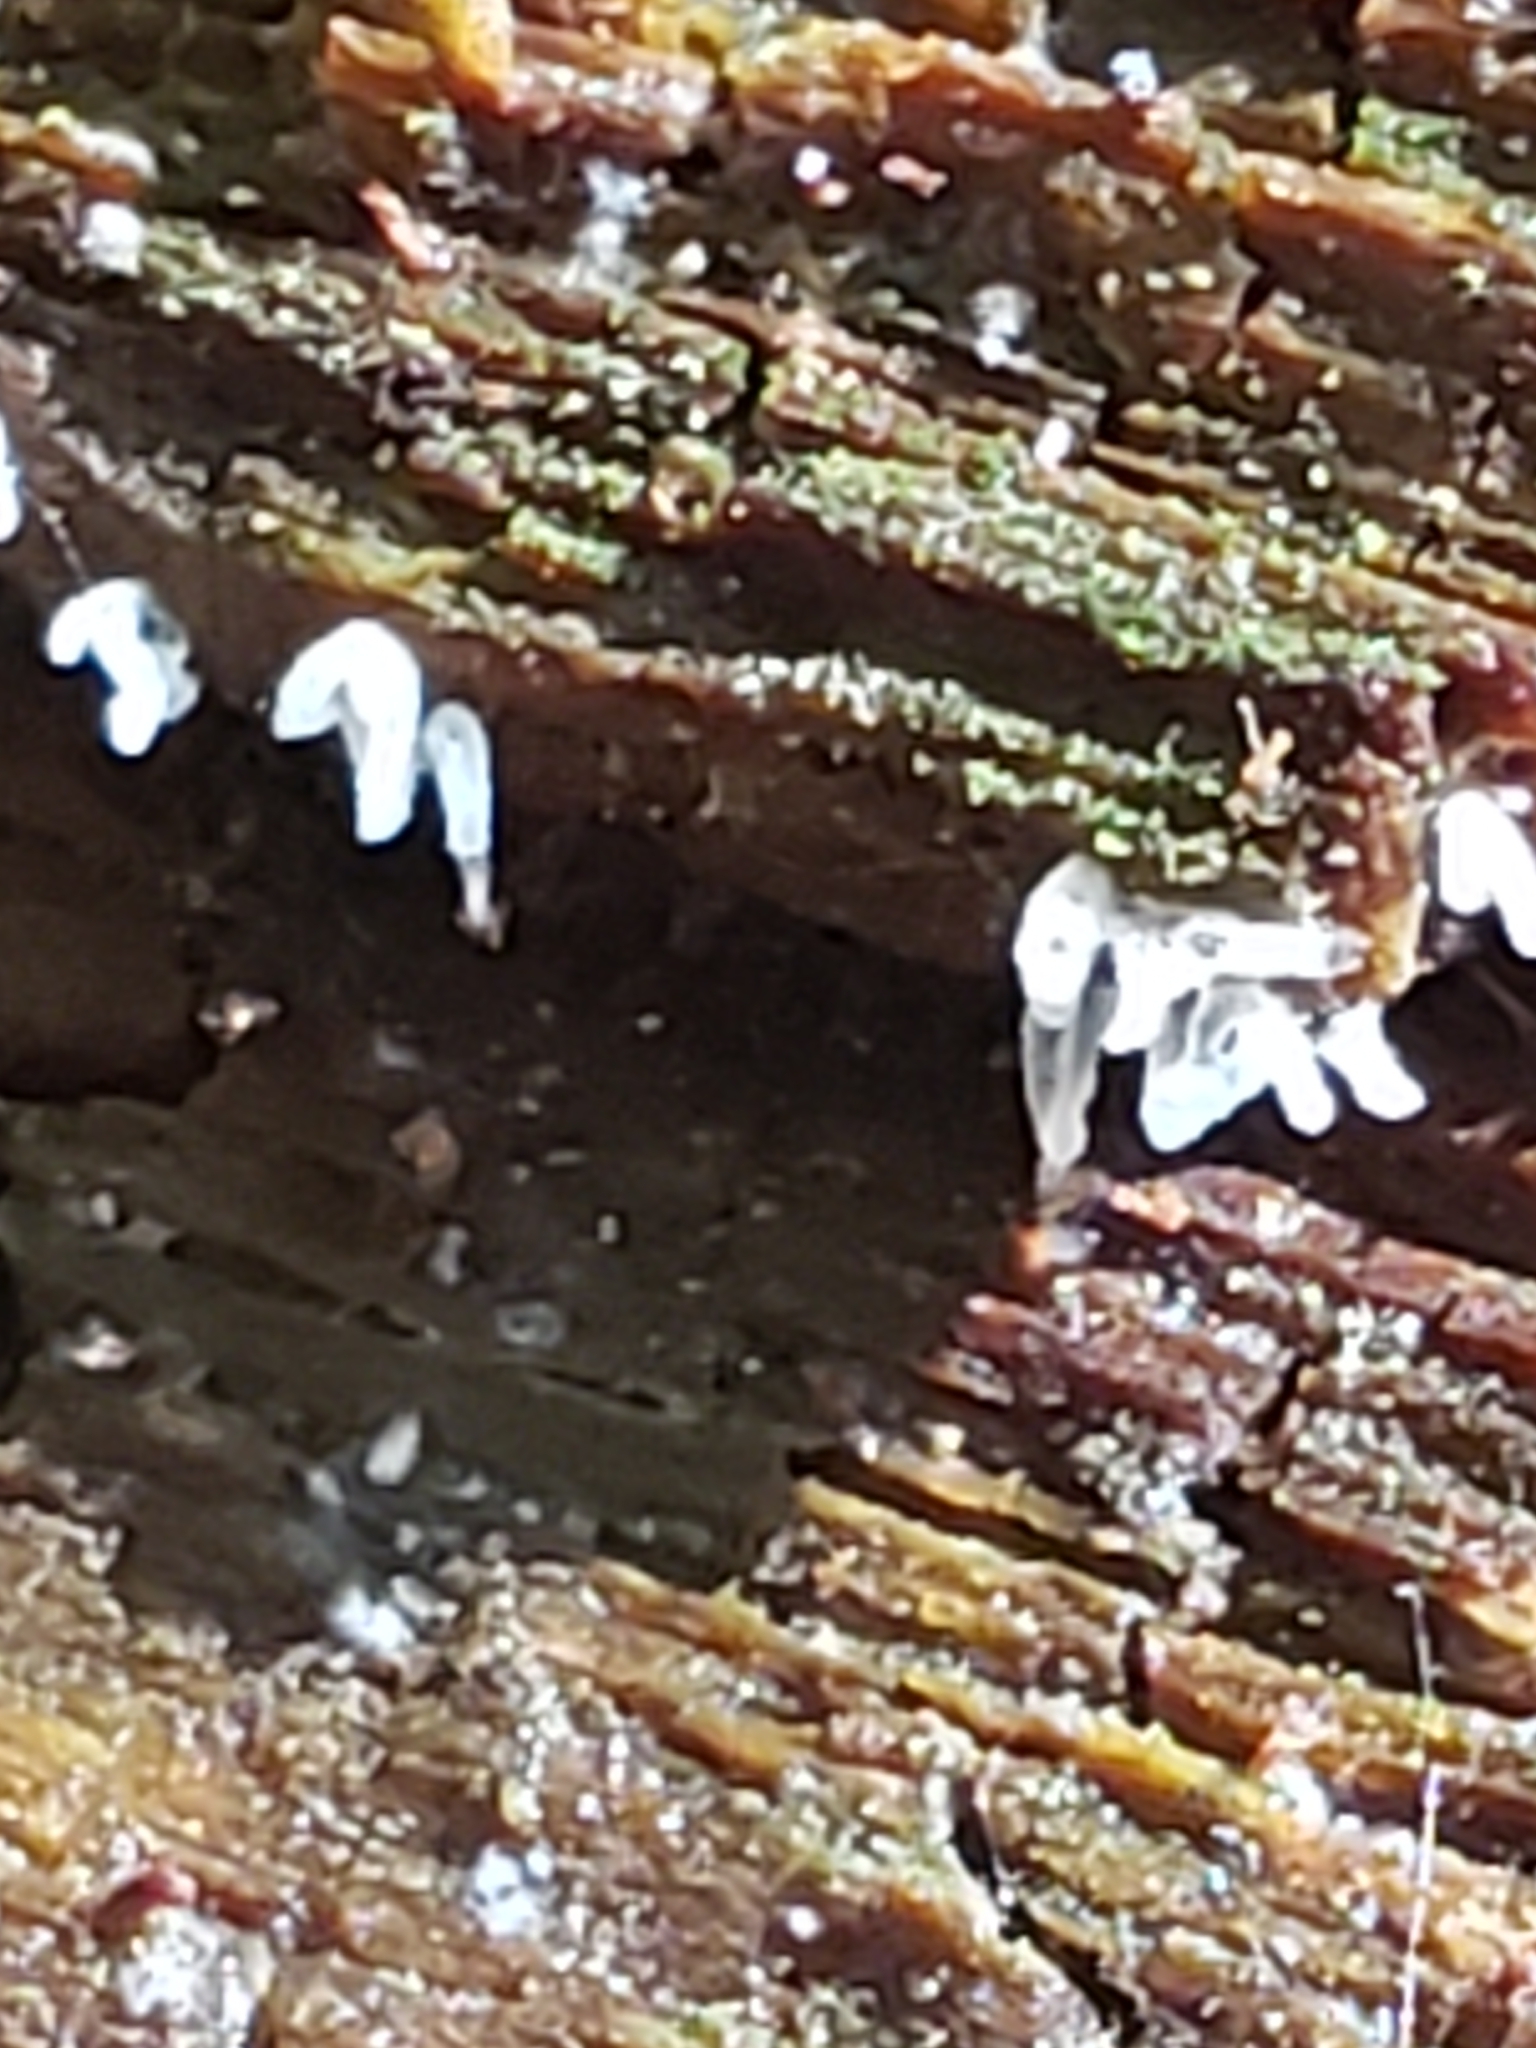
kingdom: Protozoa
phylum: Mycetozoa
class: Protosteliomycetes
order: Ceratiomyxales
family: Ceratiomyxaceae
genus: Ceratiomyxa
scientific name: Ceratiomyxa fruticulosa
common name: Honeycomb coral slime mold
